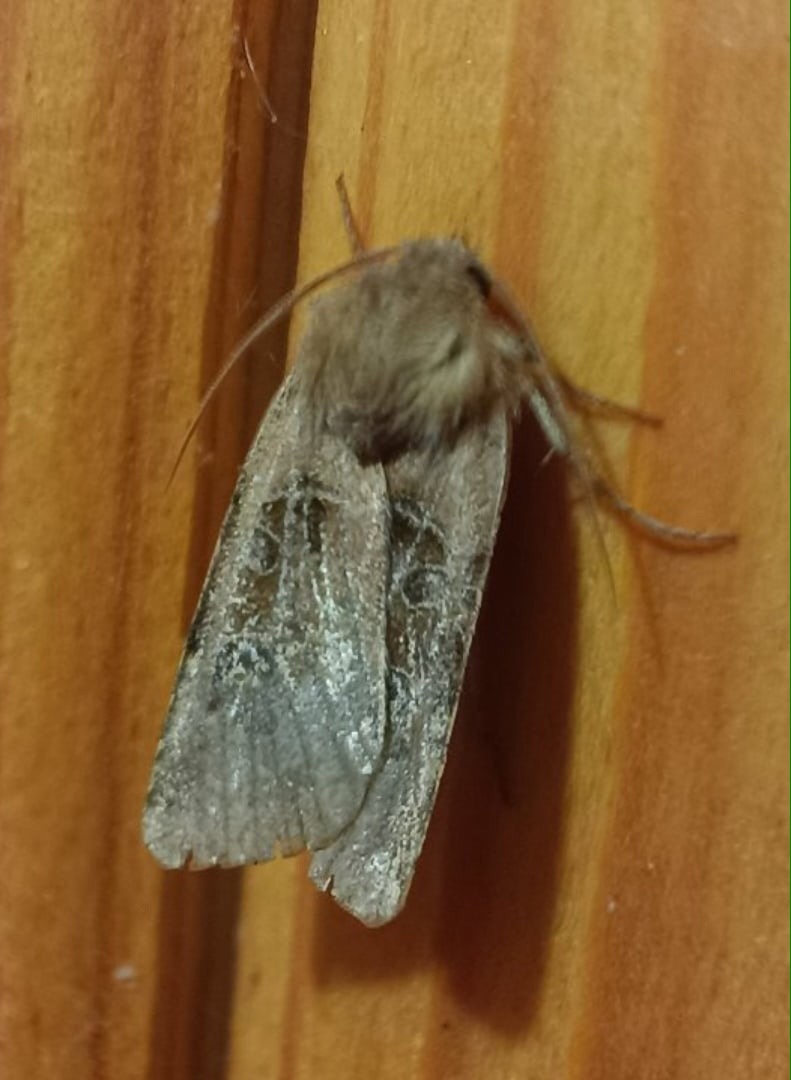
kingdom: Animalia
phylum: Arthropoda
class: Insecta
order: Lepidoptera
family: Noctuidae
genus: Chersotis
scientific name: Chersotis cuprea
